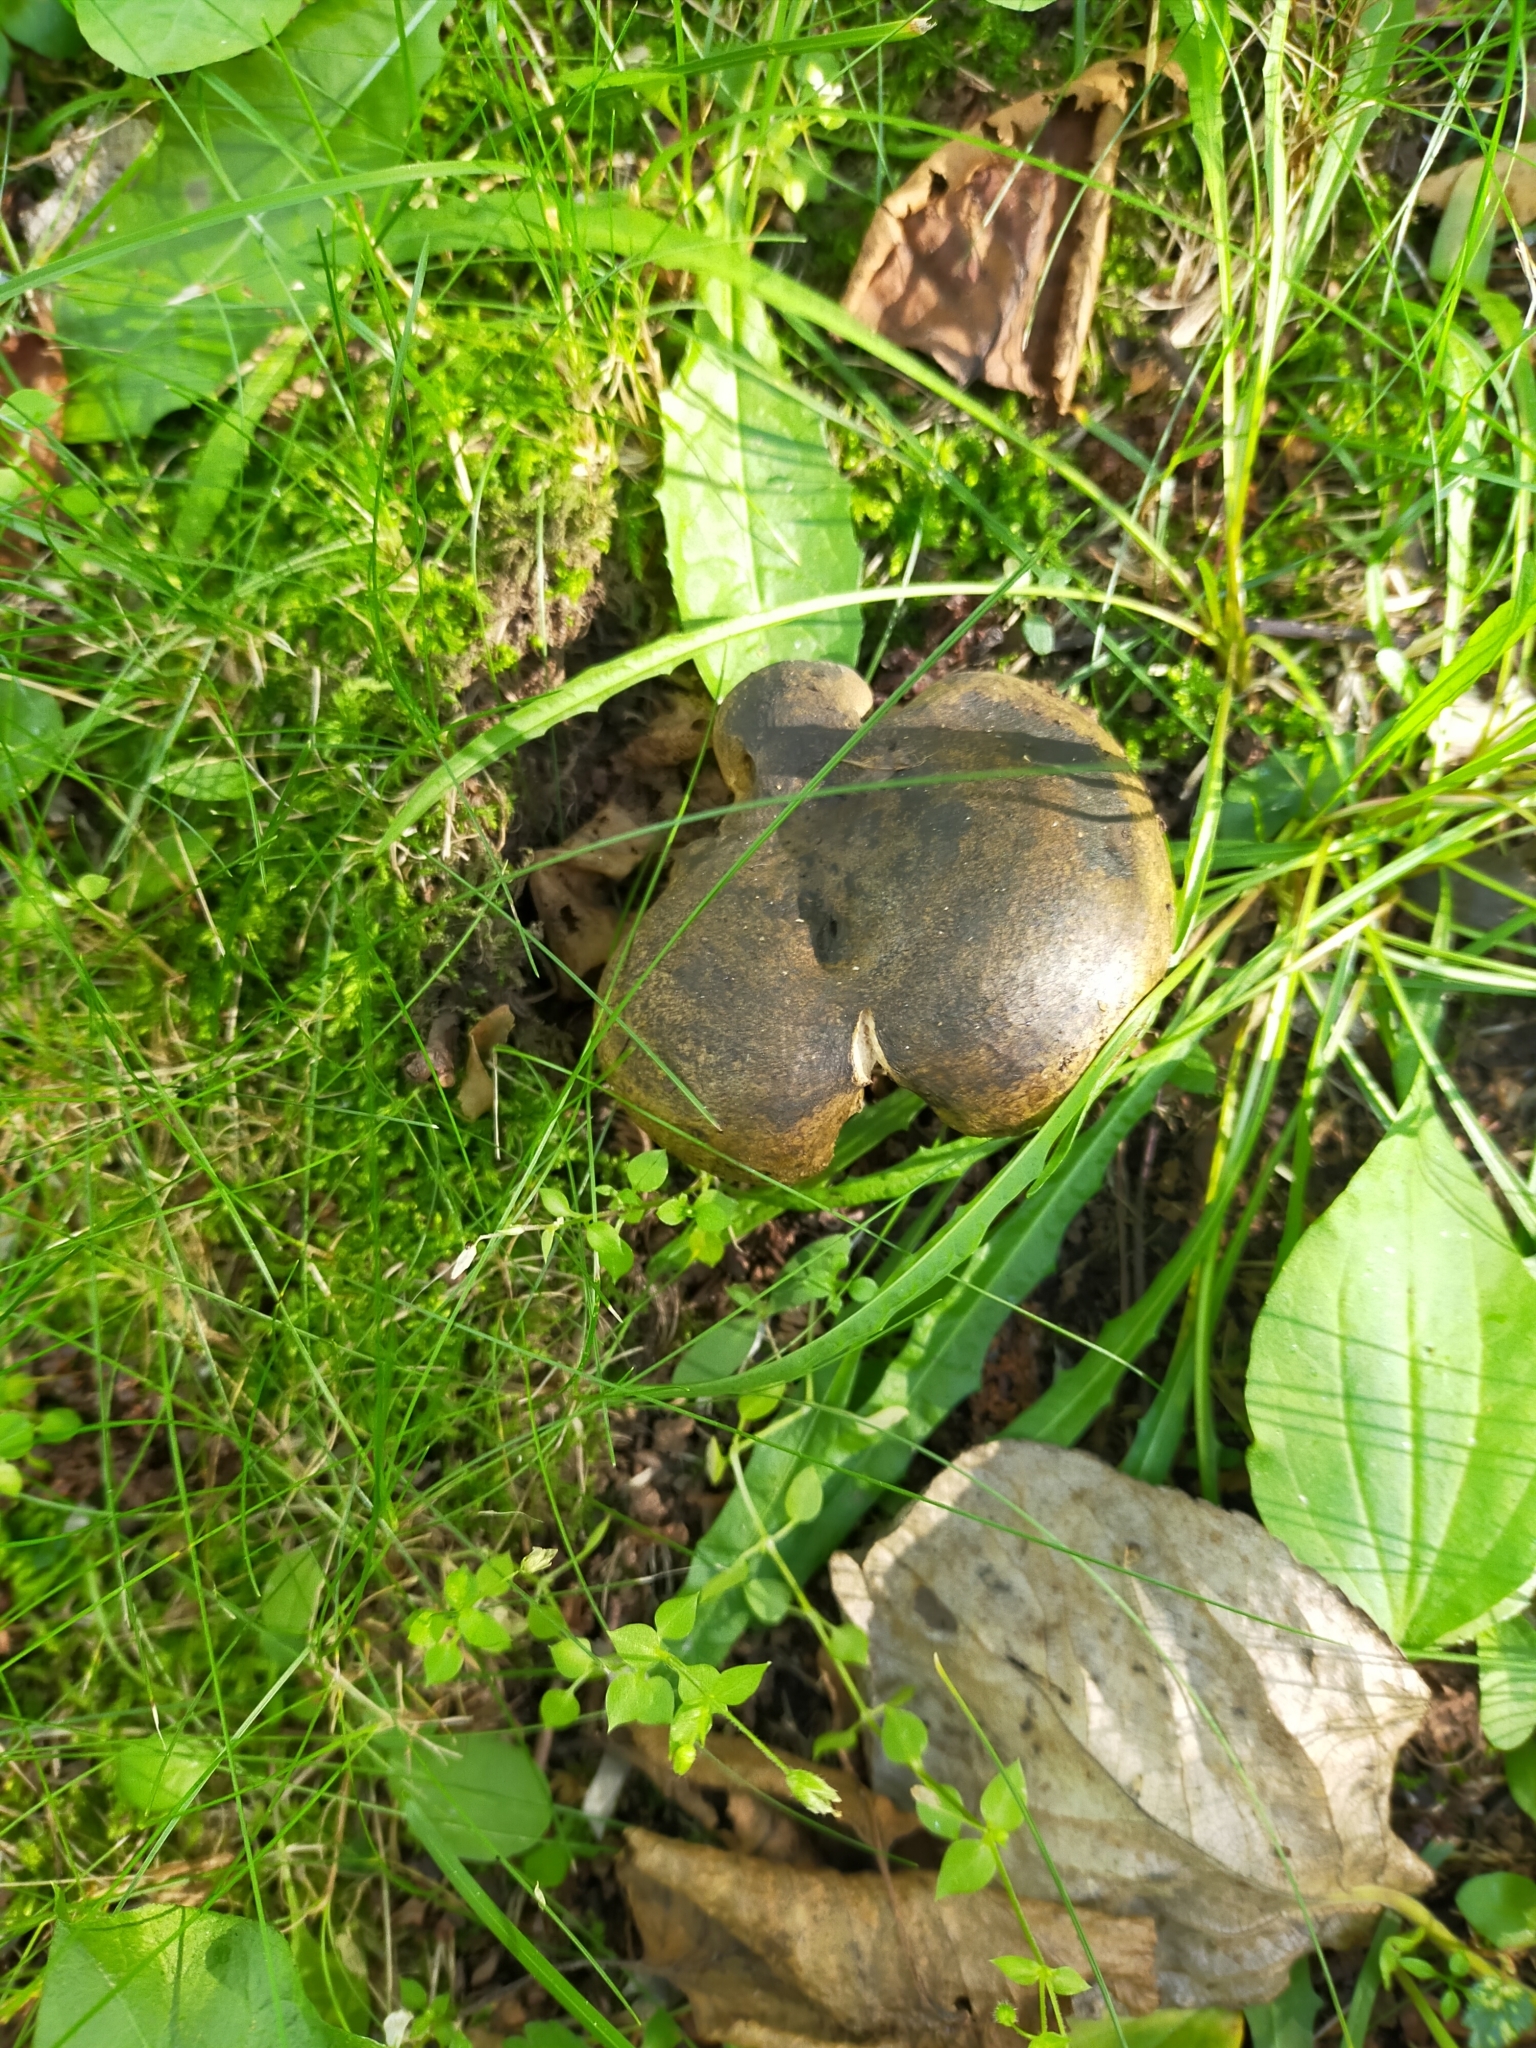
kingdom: Fungi
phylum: Basidiomycota
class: Agaricomycetes
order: Russulales
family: Russulaceae
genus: Lactarius
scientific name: Lactarius turpis
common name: Ugly milk-cap
